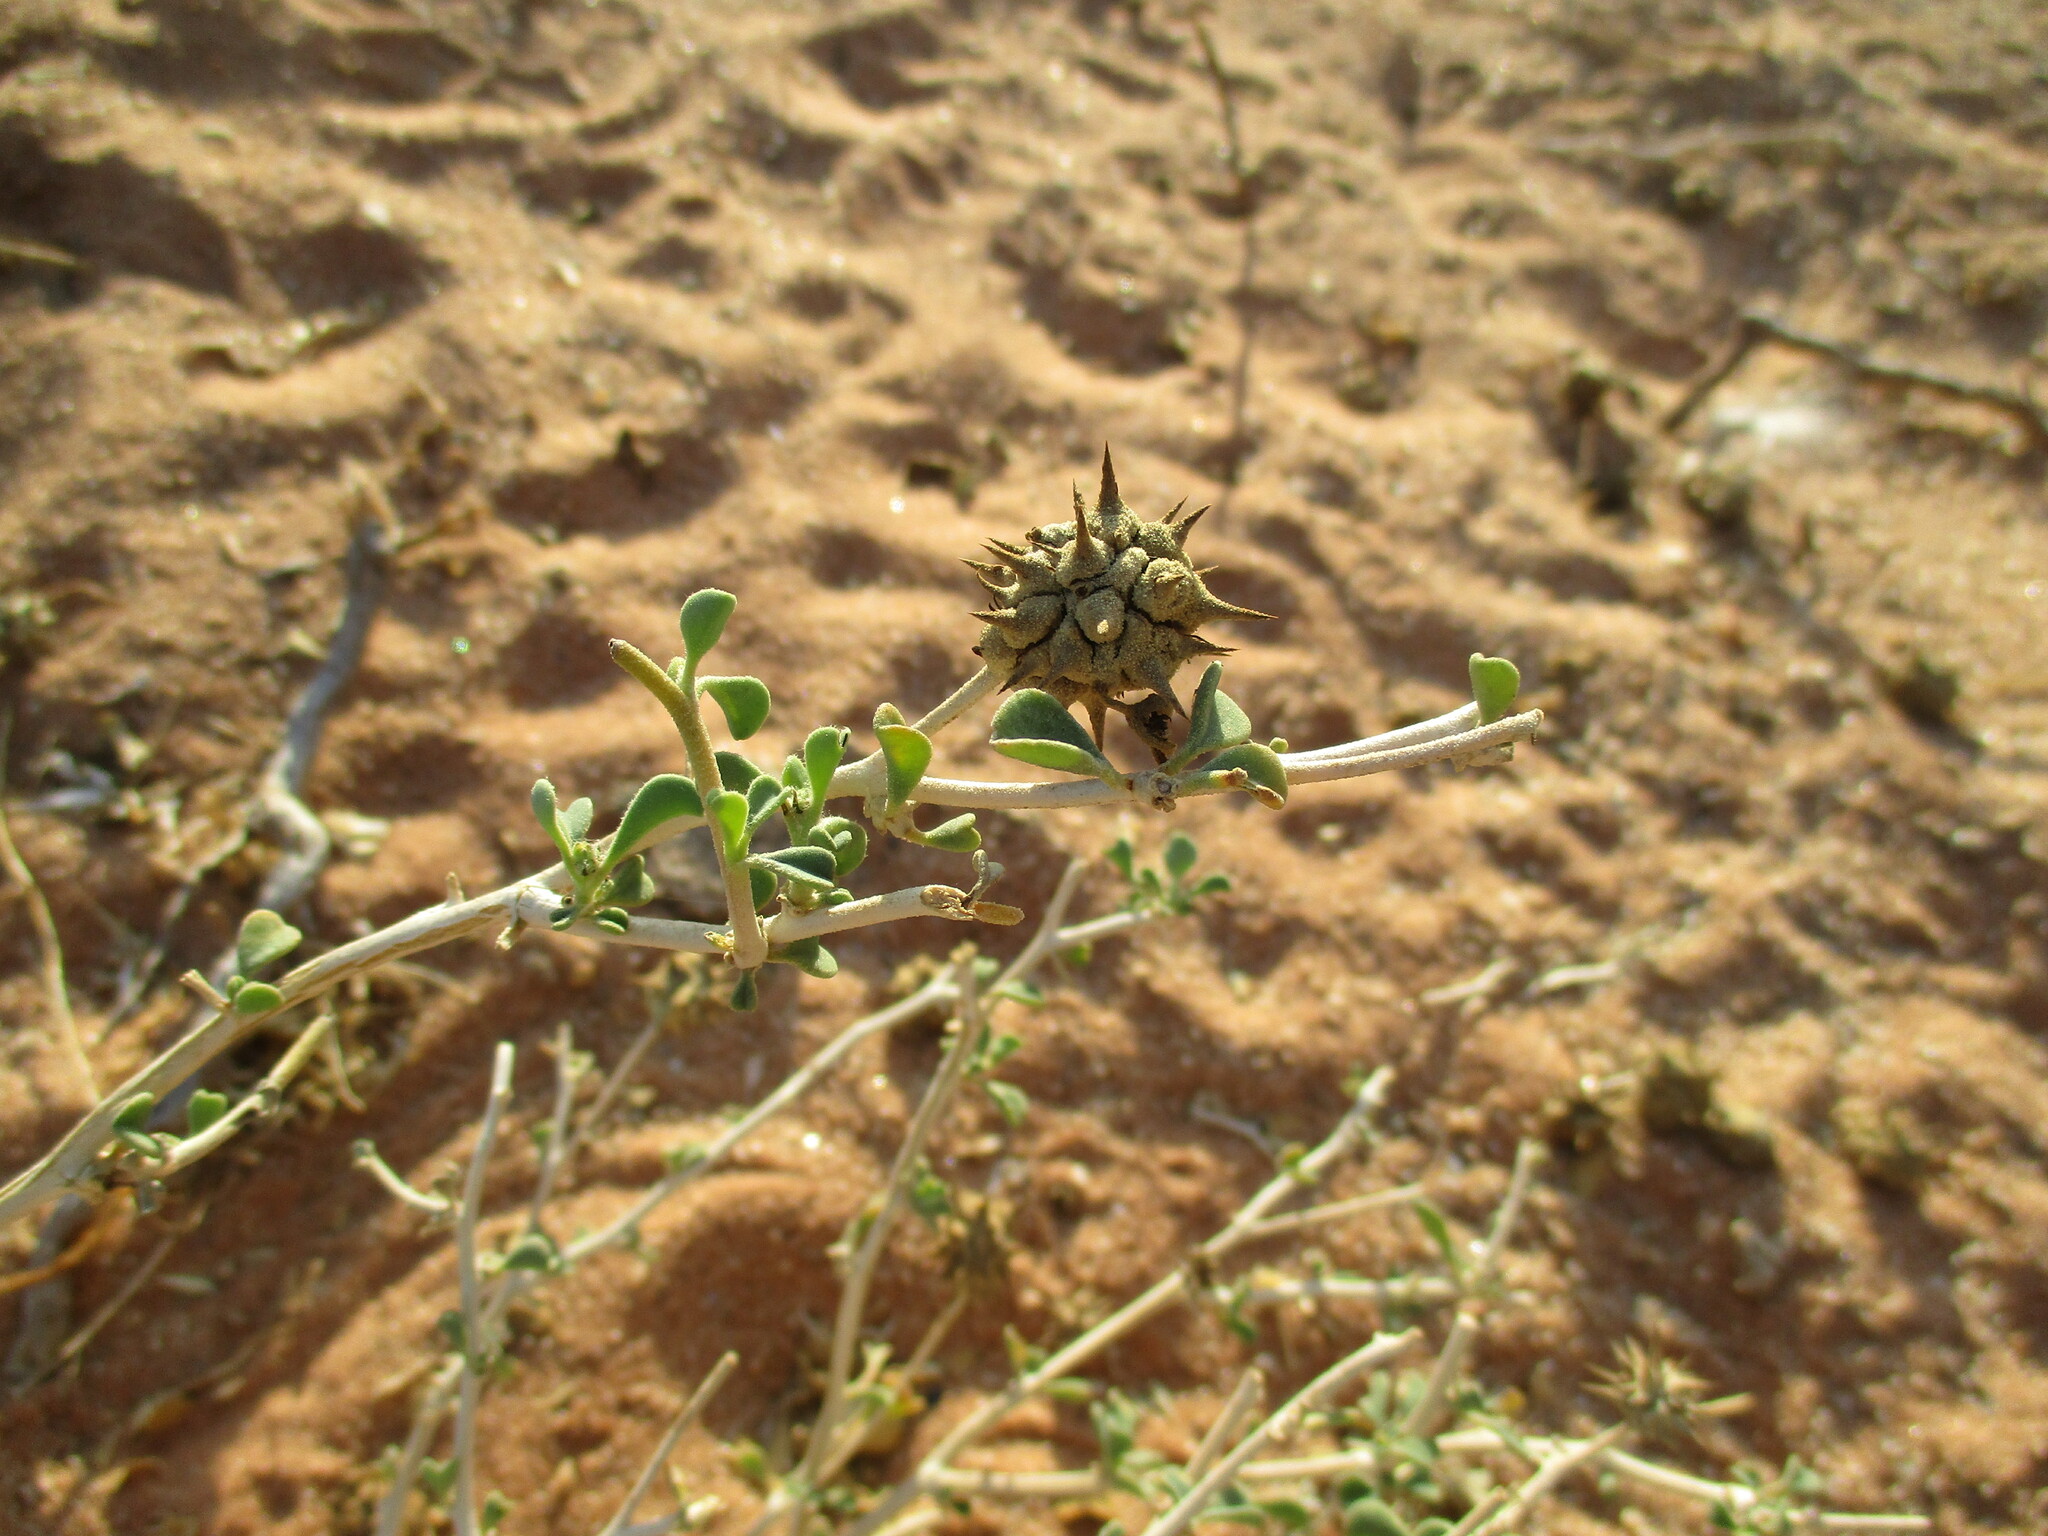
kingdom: Plantae
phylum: Tracheophyta
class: Magnoliopsida
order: Caryophyllales
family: Aizoaceae
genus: Tribulocarpus
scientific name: Tribulocarpus dimorphanthus
